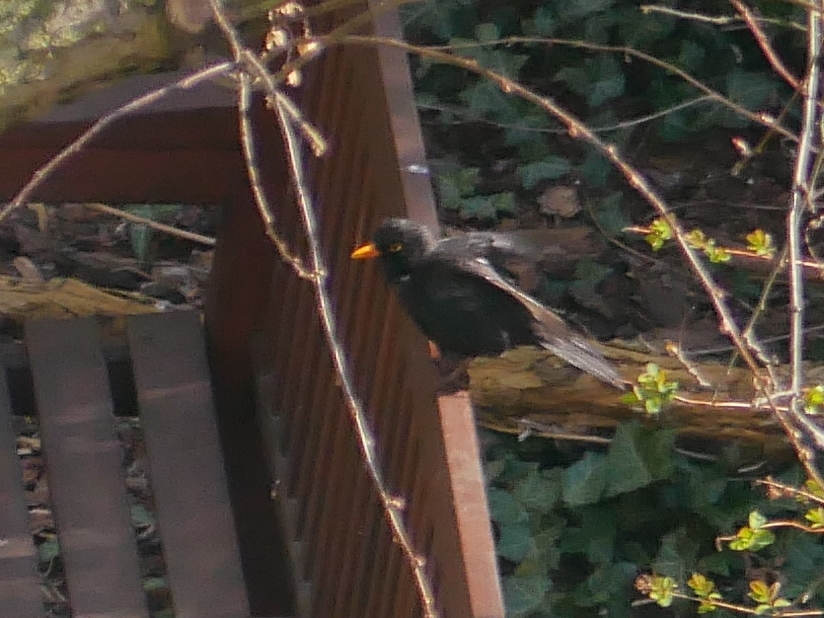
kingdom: Animalia
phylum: Chordata
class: Aves
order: Passeriformes
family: Turdidae
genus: Turdus
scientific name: Turdus merula
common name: Common blackbird
